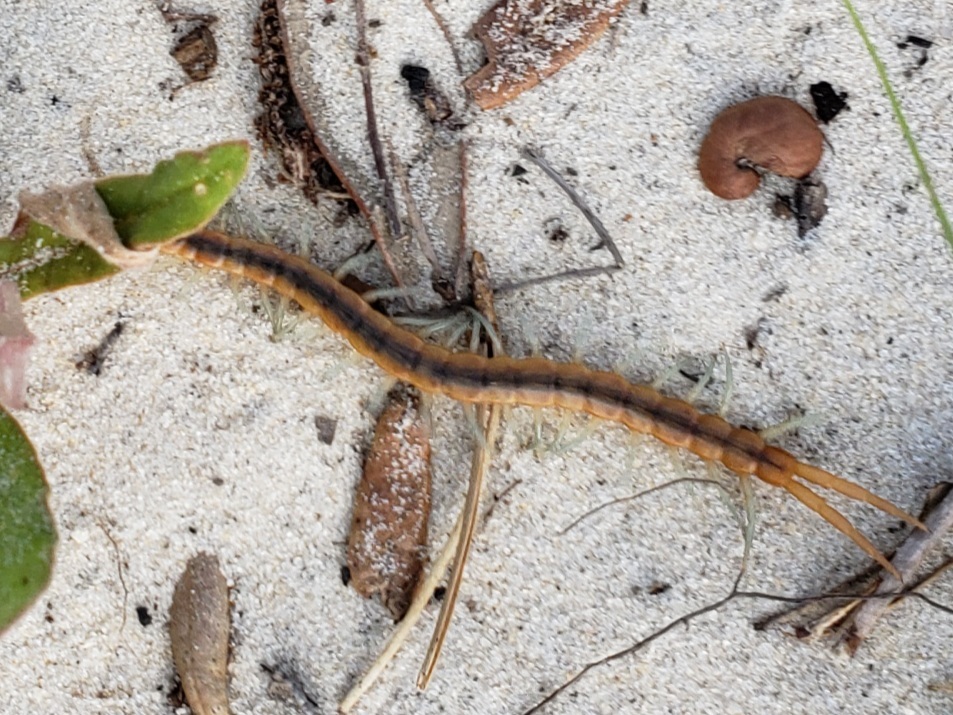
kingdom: Animalia
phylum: Arthropoda
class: Chilopoda
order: Scolopendromorpha
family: Scolopendridae
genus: Scolopendra
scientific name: Scolopendra viridis
